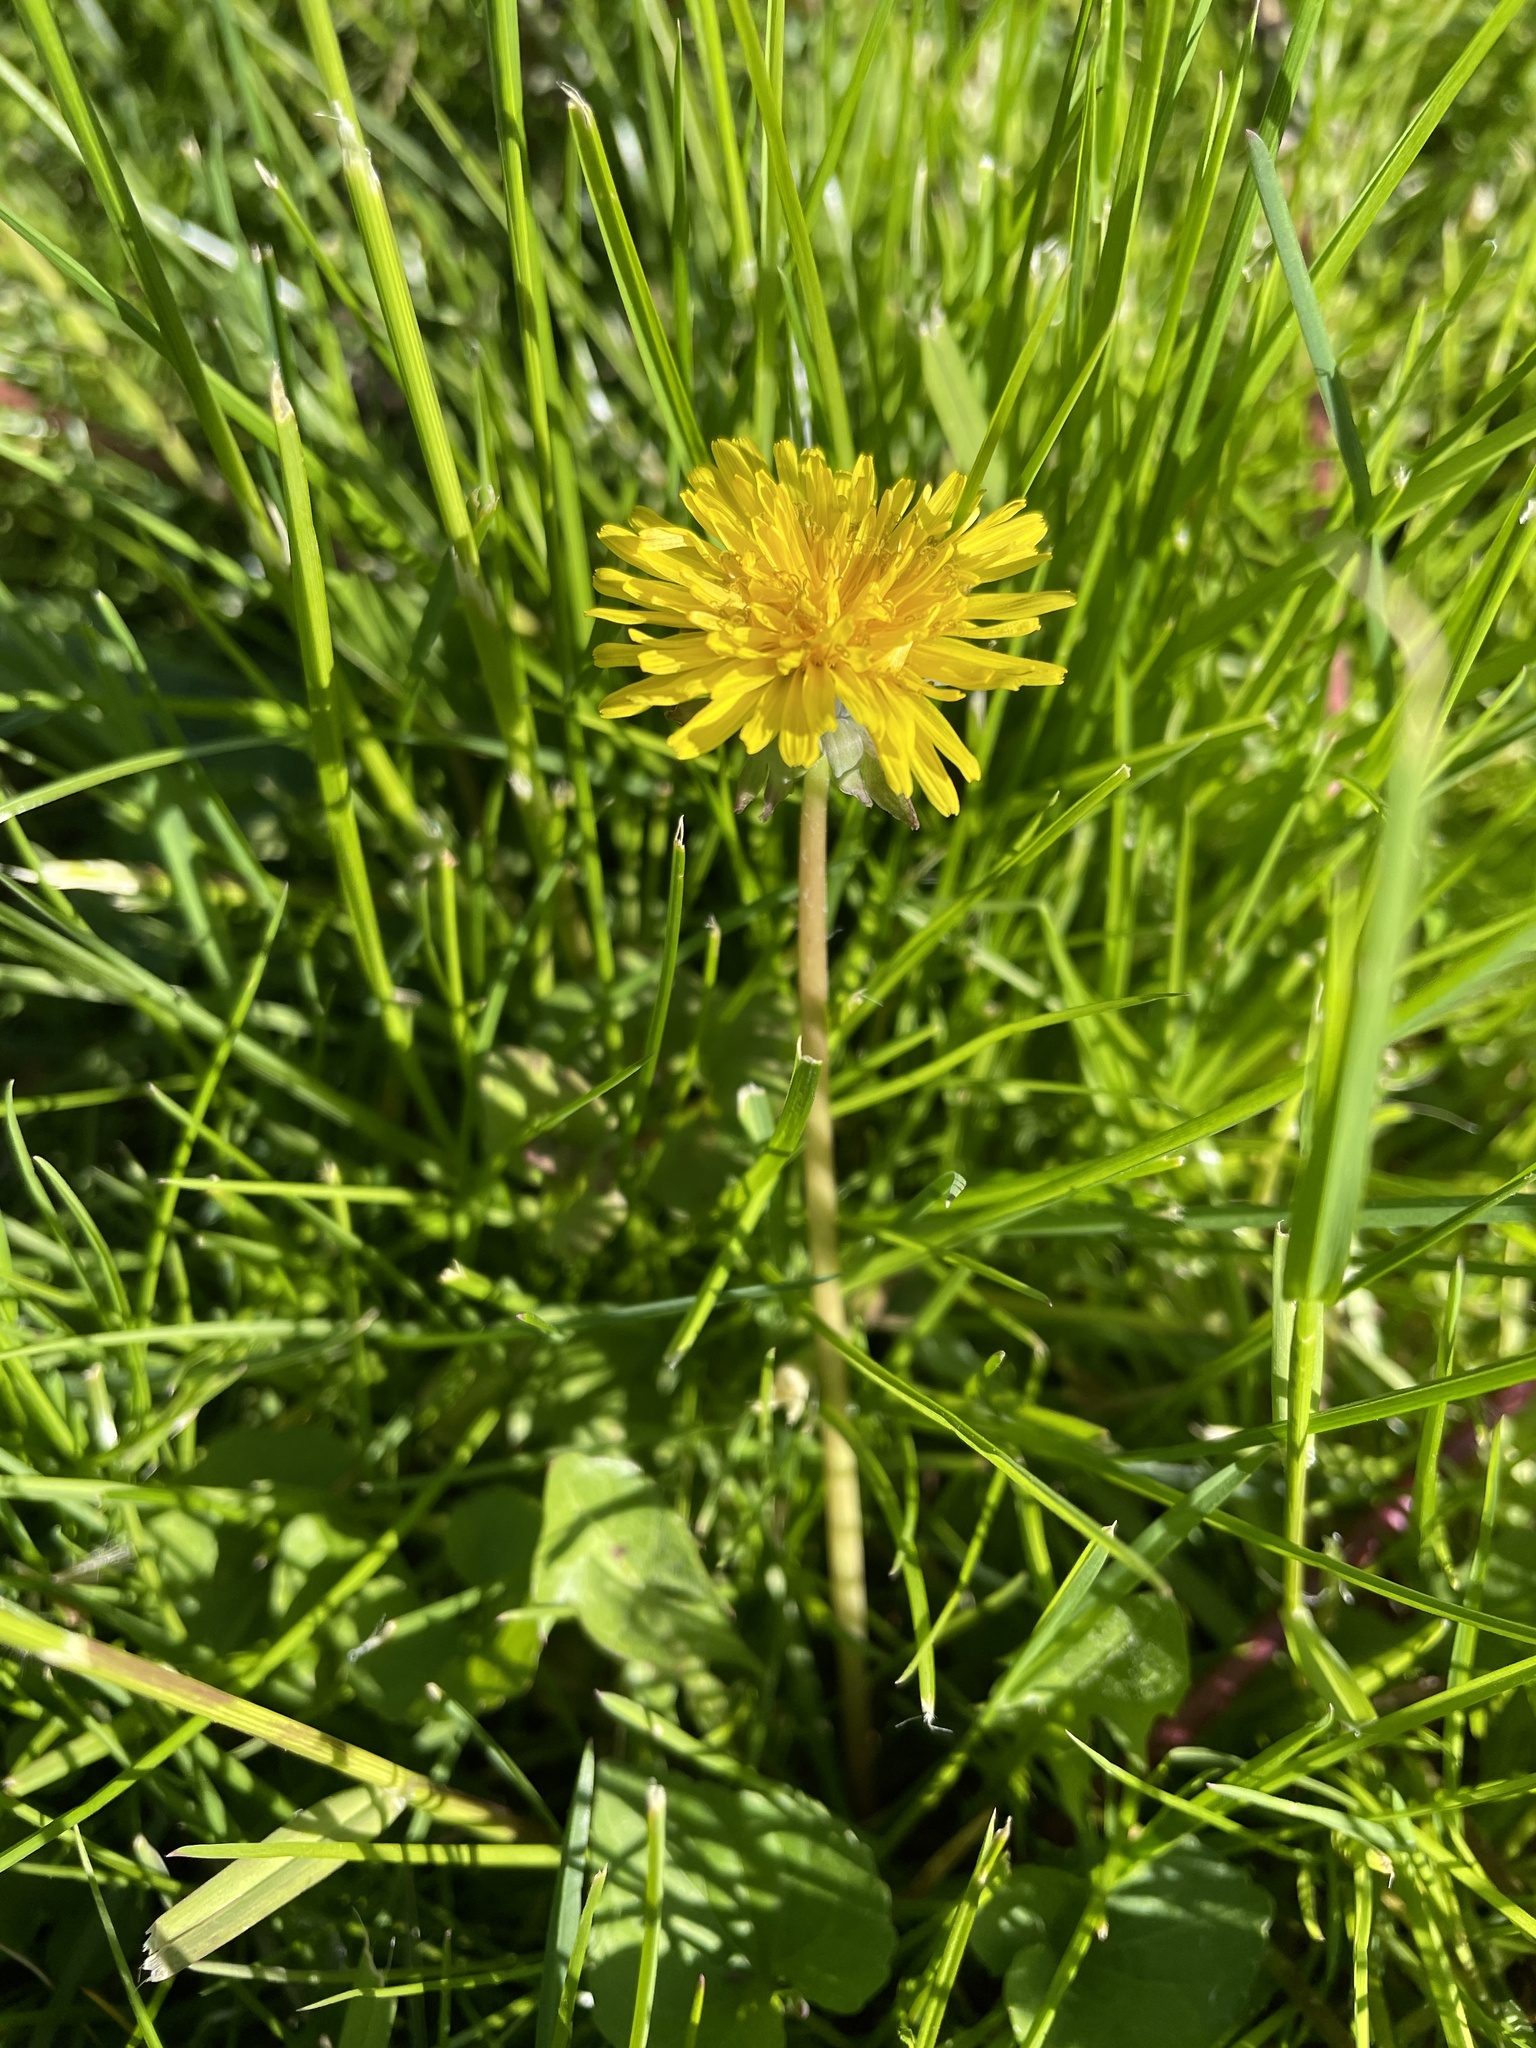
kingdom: Plantae
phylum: Tracheophyta
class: Magnoliopsida
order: Asterales
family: Asteraceae
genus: Taraxacum
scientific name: Taraxacum officinale
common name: Common dandelion
